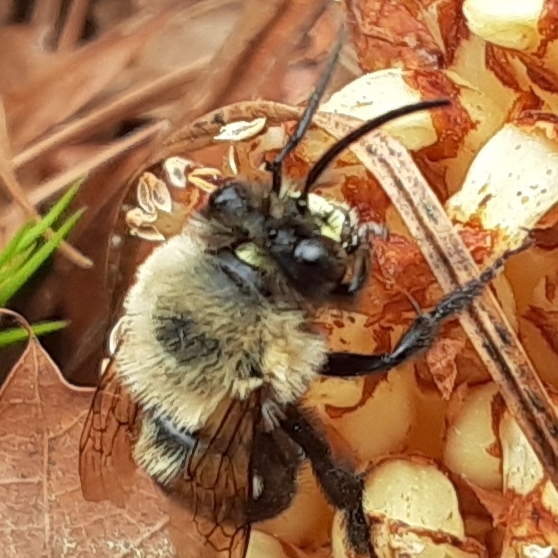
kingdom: Animalia
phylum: Arthropoda
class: Insecta
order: Hymenoptera
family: Apidae
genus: Habropoda
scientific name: Habropoda laboriosa
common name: Southeastern blueberry bee
